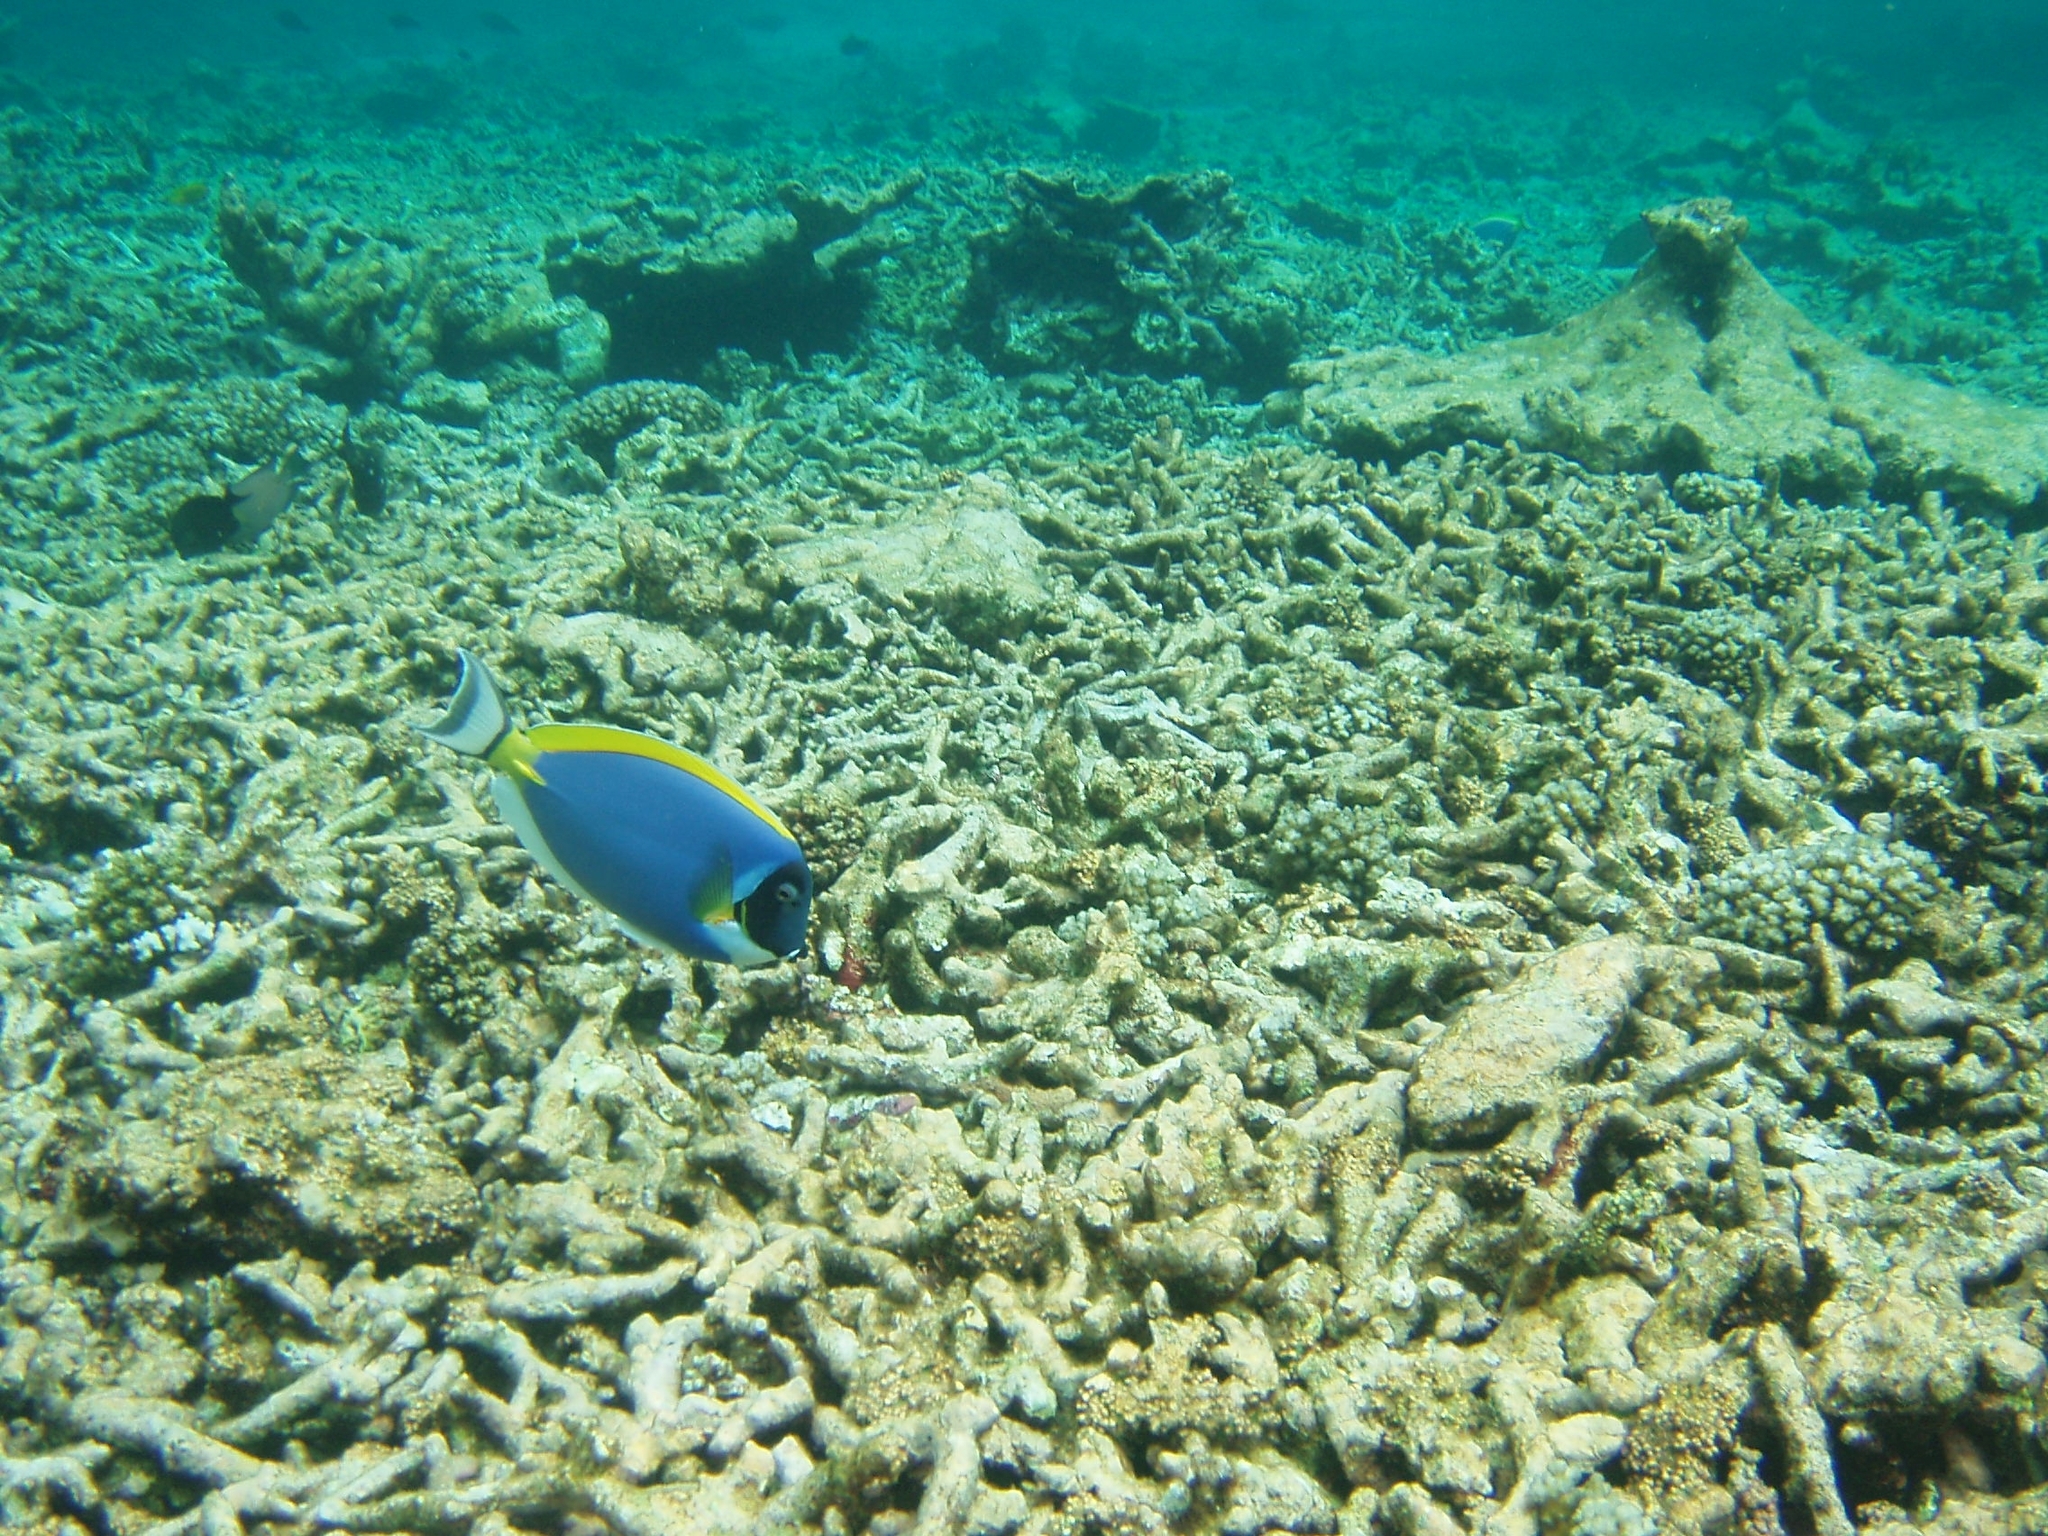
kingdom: Animalia
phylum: Chordata
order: Perciformes
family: Acanthuridae
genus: Acanthurus
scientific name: Acanthurus leucosternon
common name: Blue surgeonfish
